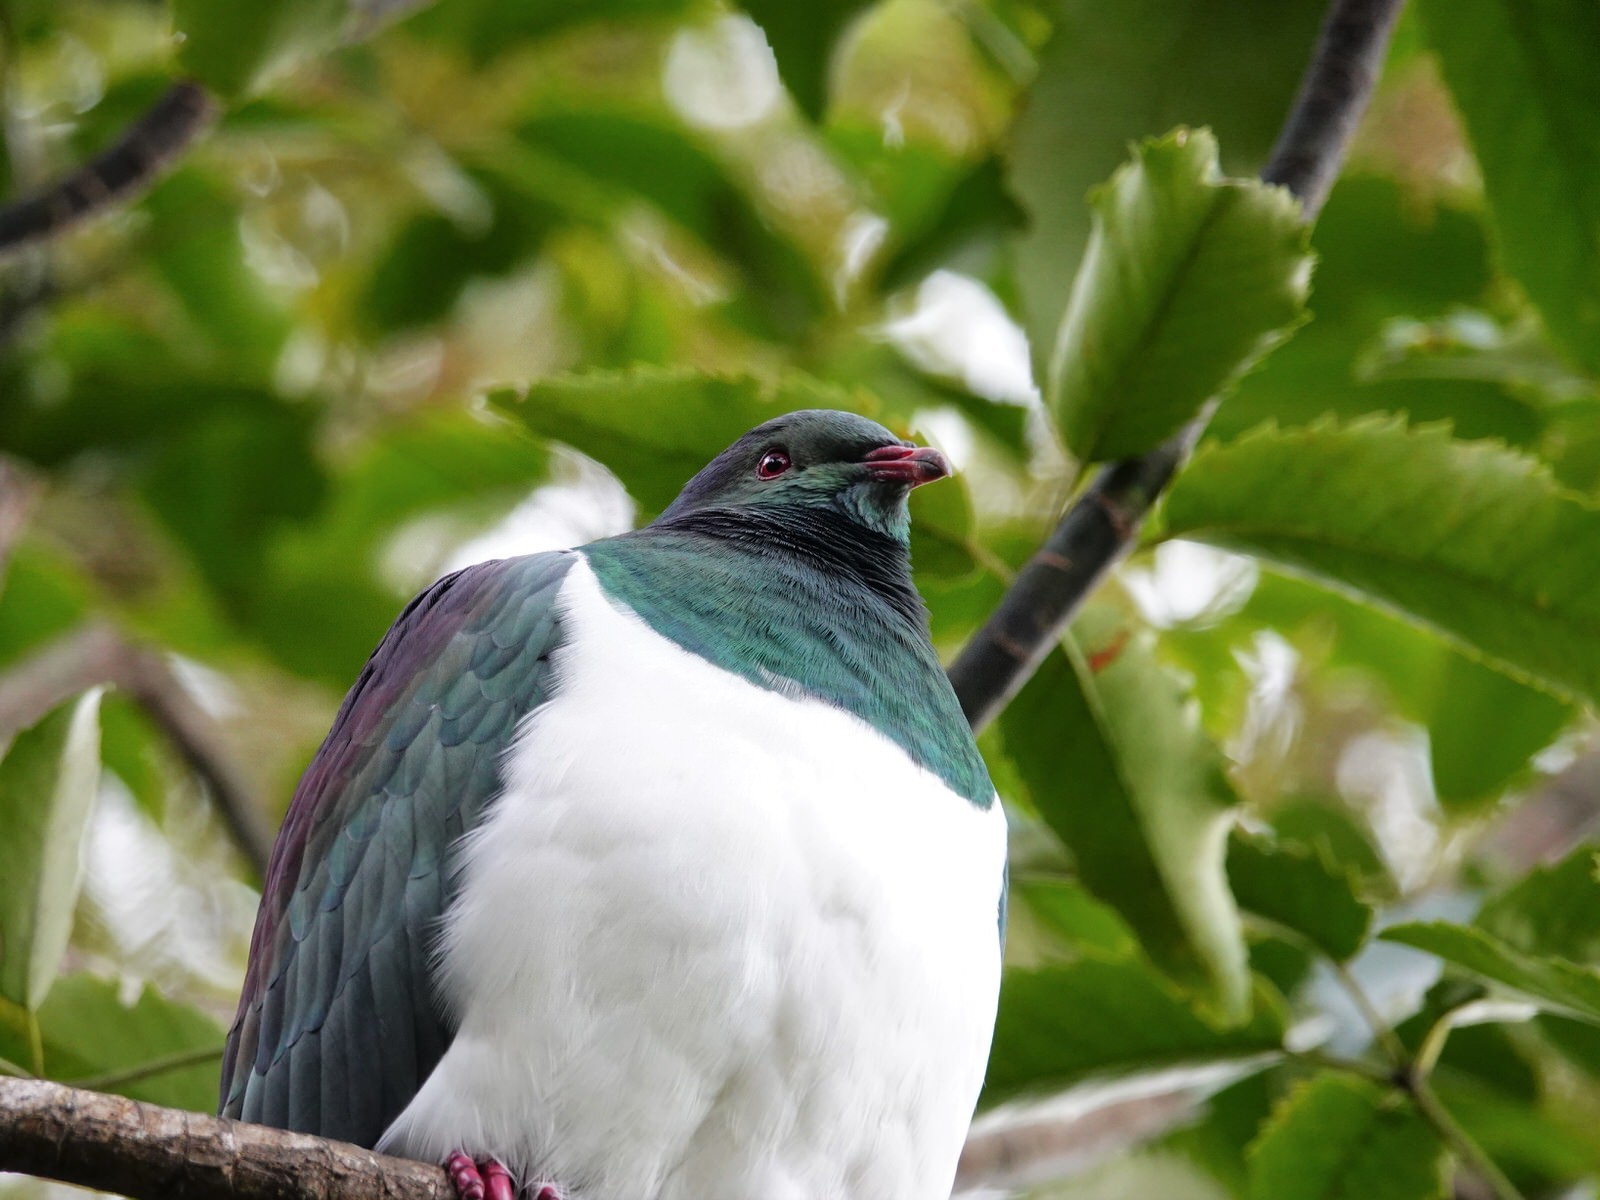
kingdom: Animalia
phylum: Chordata
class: Aves
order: Columbiformes
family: Columbidae
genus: Hemiphaga
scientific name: Hemiphaga novaeseelandiae
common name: New zealand pigeon
